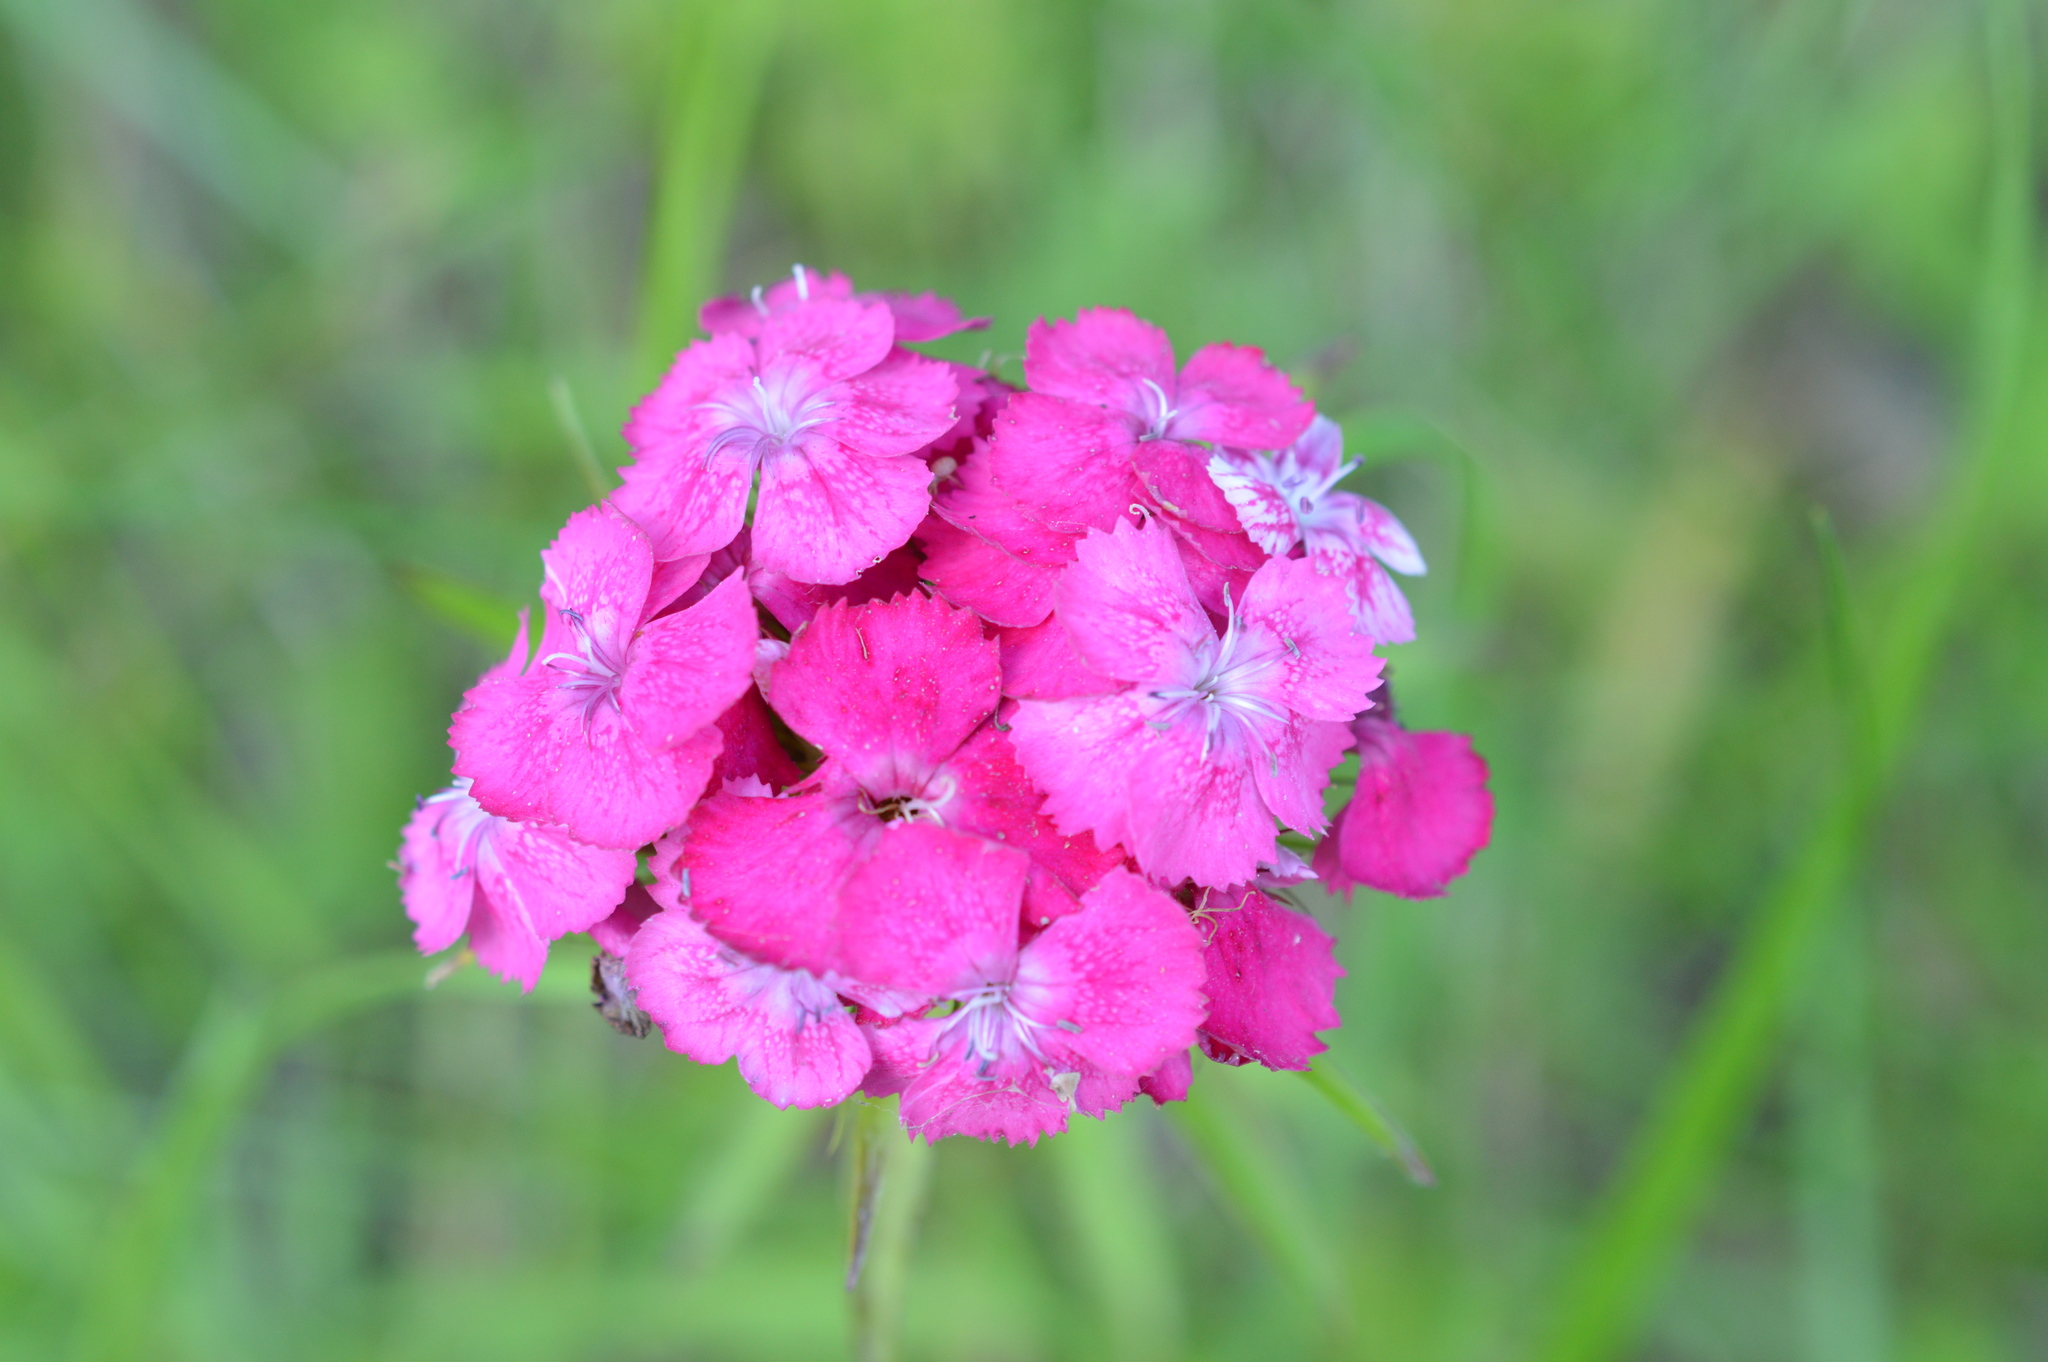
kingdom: Plantae
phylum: Tracheophyta
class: Magnoliopsida
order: Caryophyllales
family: Caryophyllaceae
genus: Dianthus
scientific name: Dianthus barbatus
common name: Sweet-william
